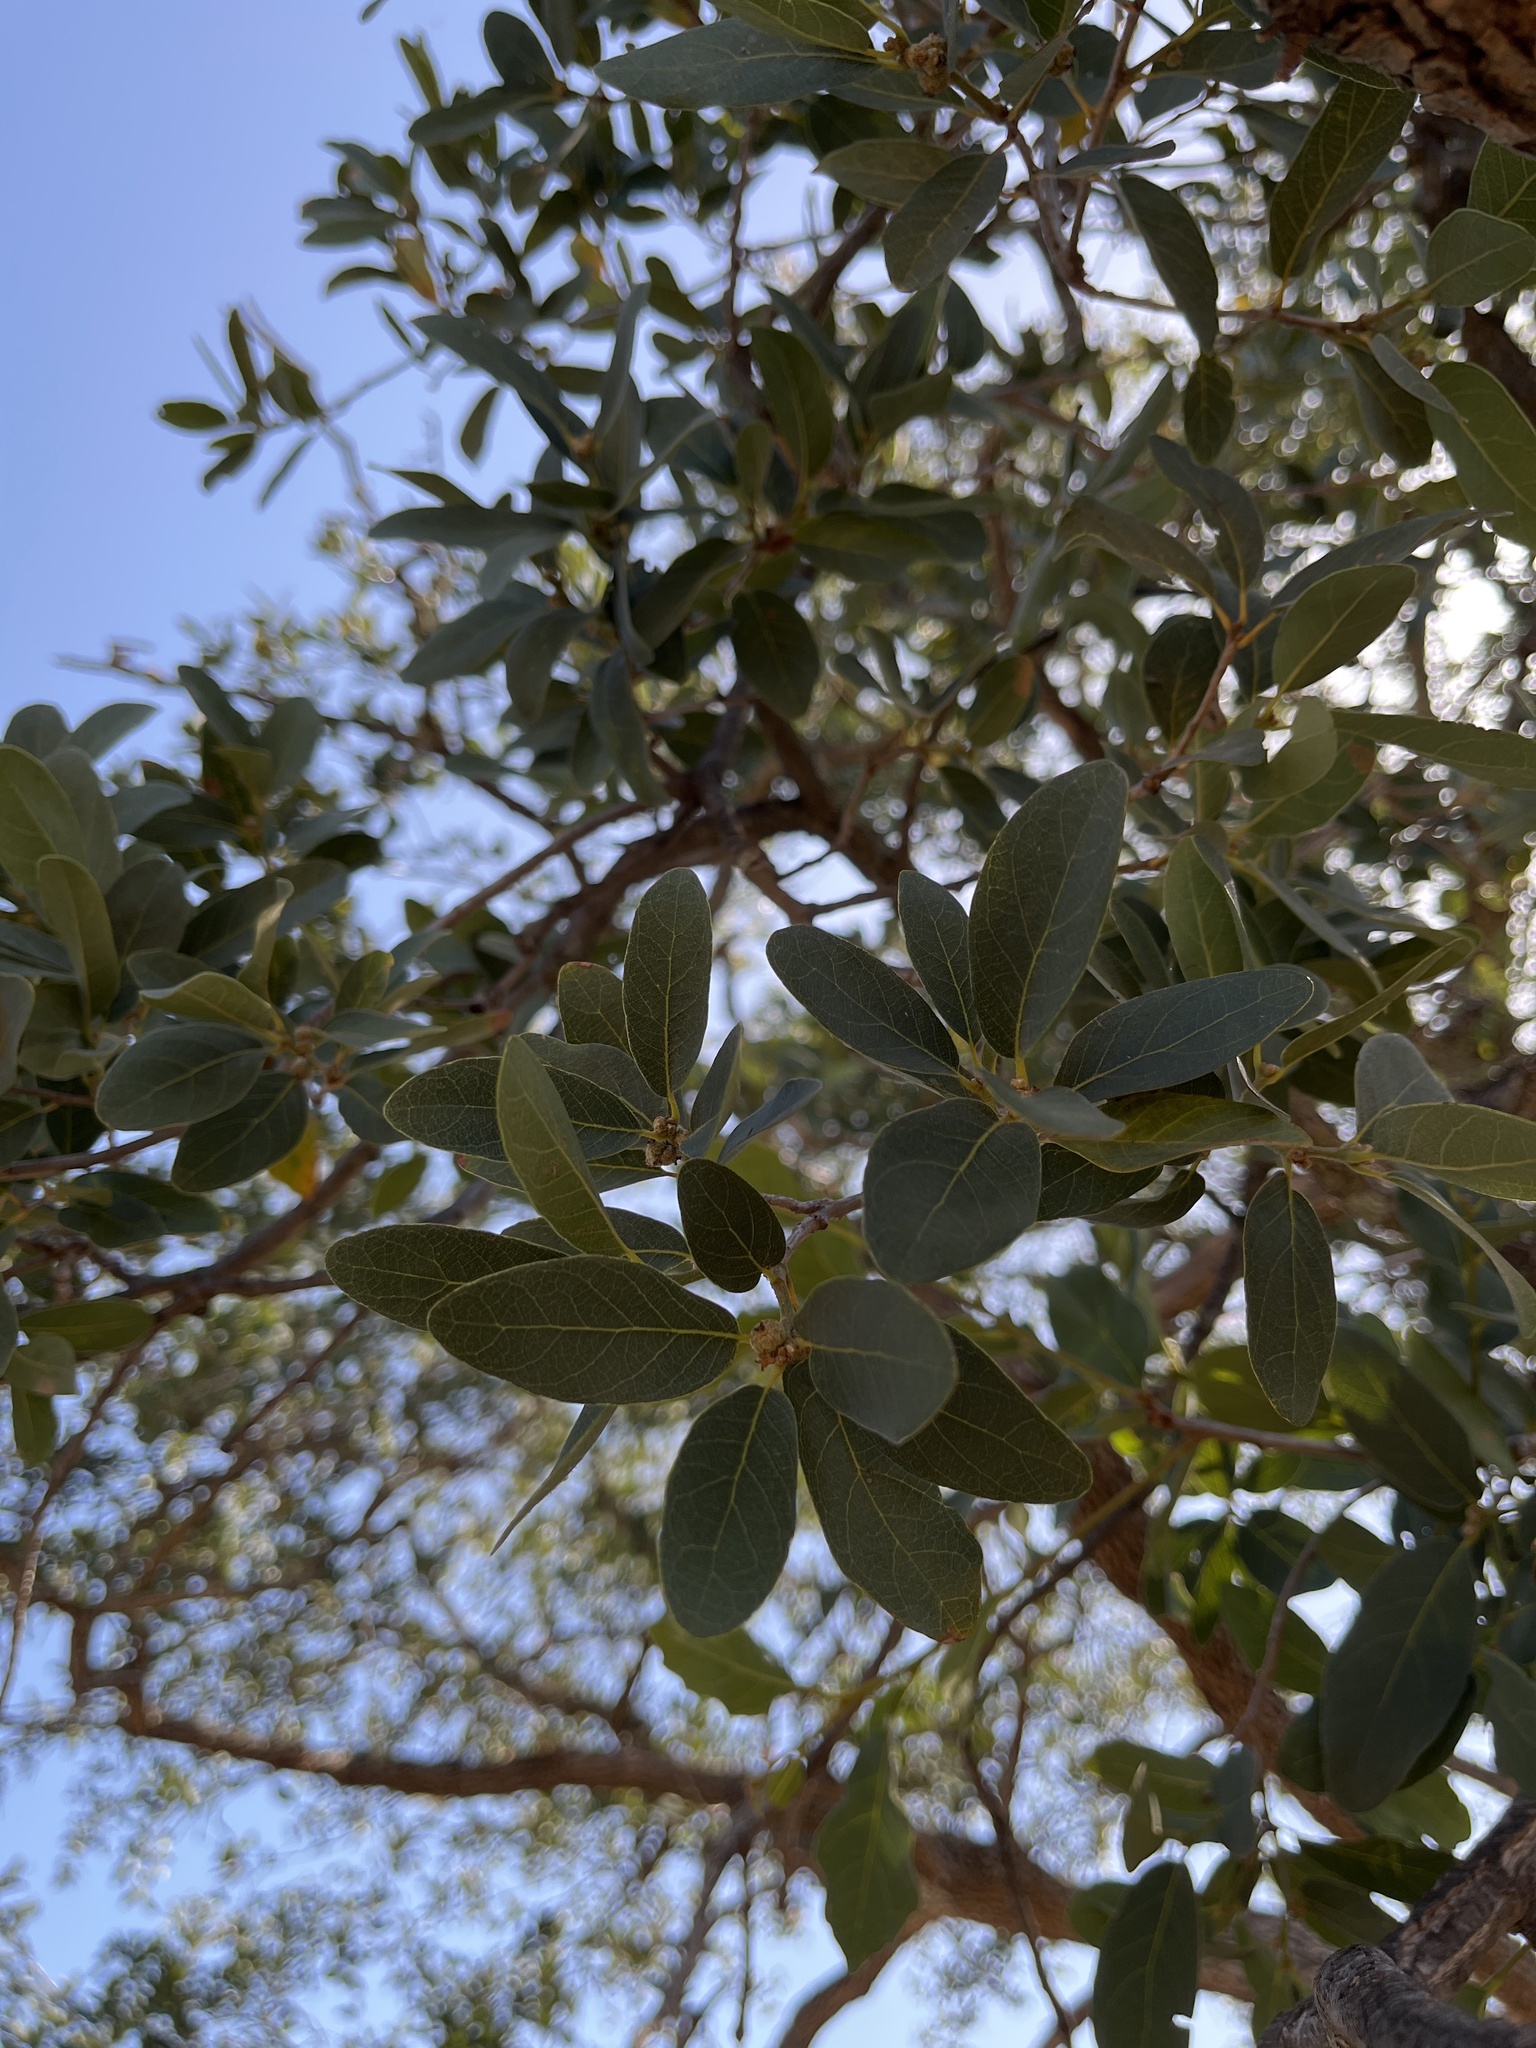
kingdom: Plantae
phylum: Tracheophyta
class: Magnoliopsida
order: Fagales
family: Fagaceae
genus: Quercus
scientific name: Quercus engelmannii
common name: Engelmann oak
